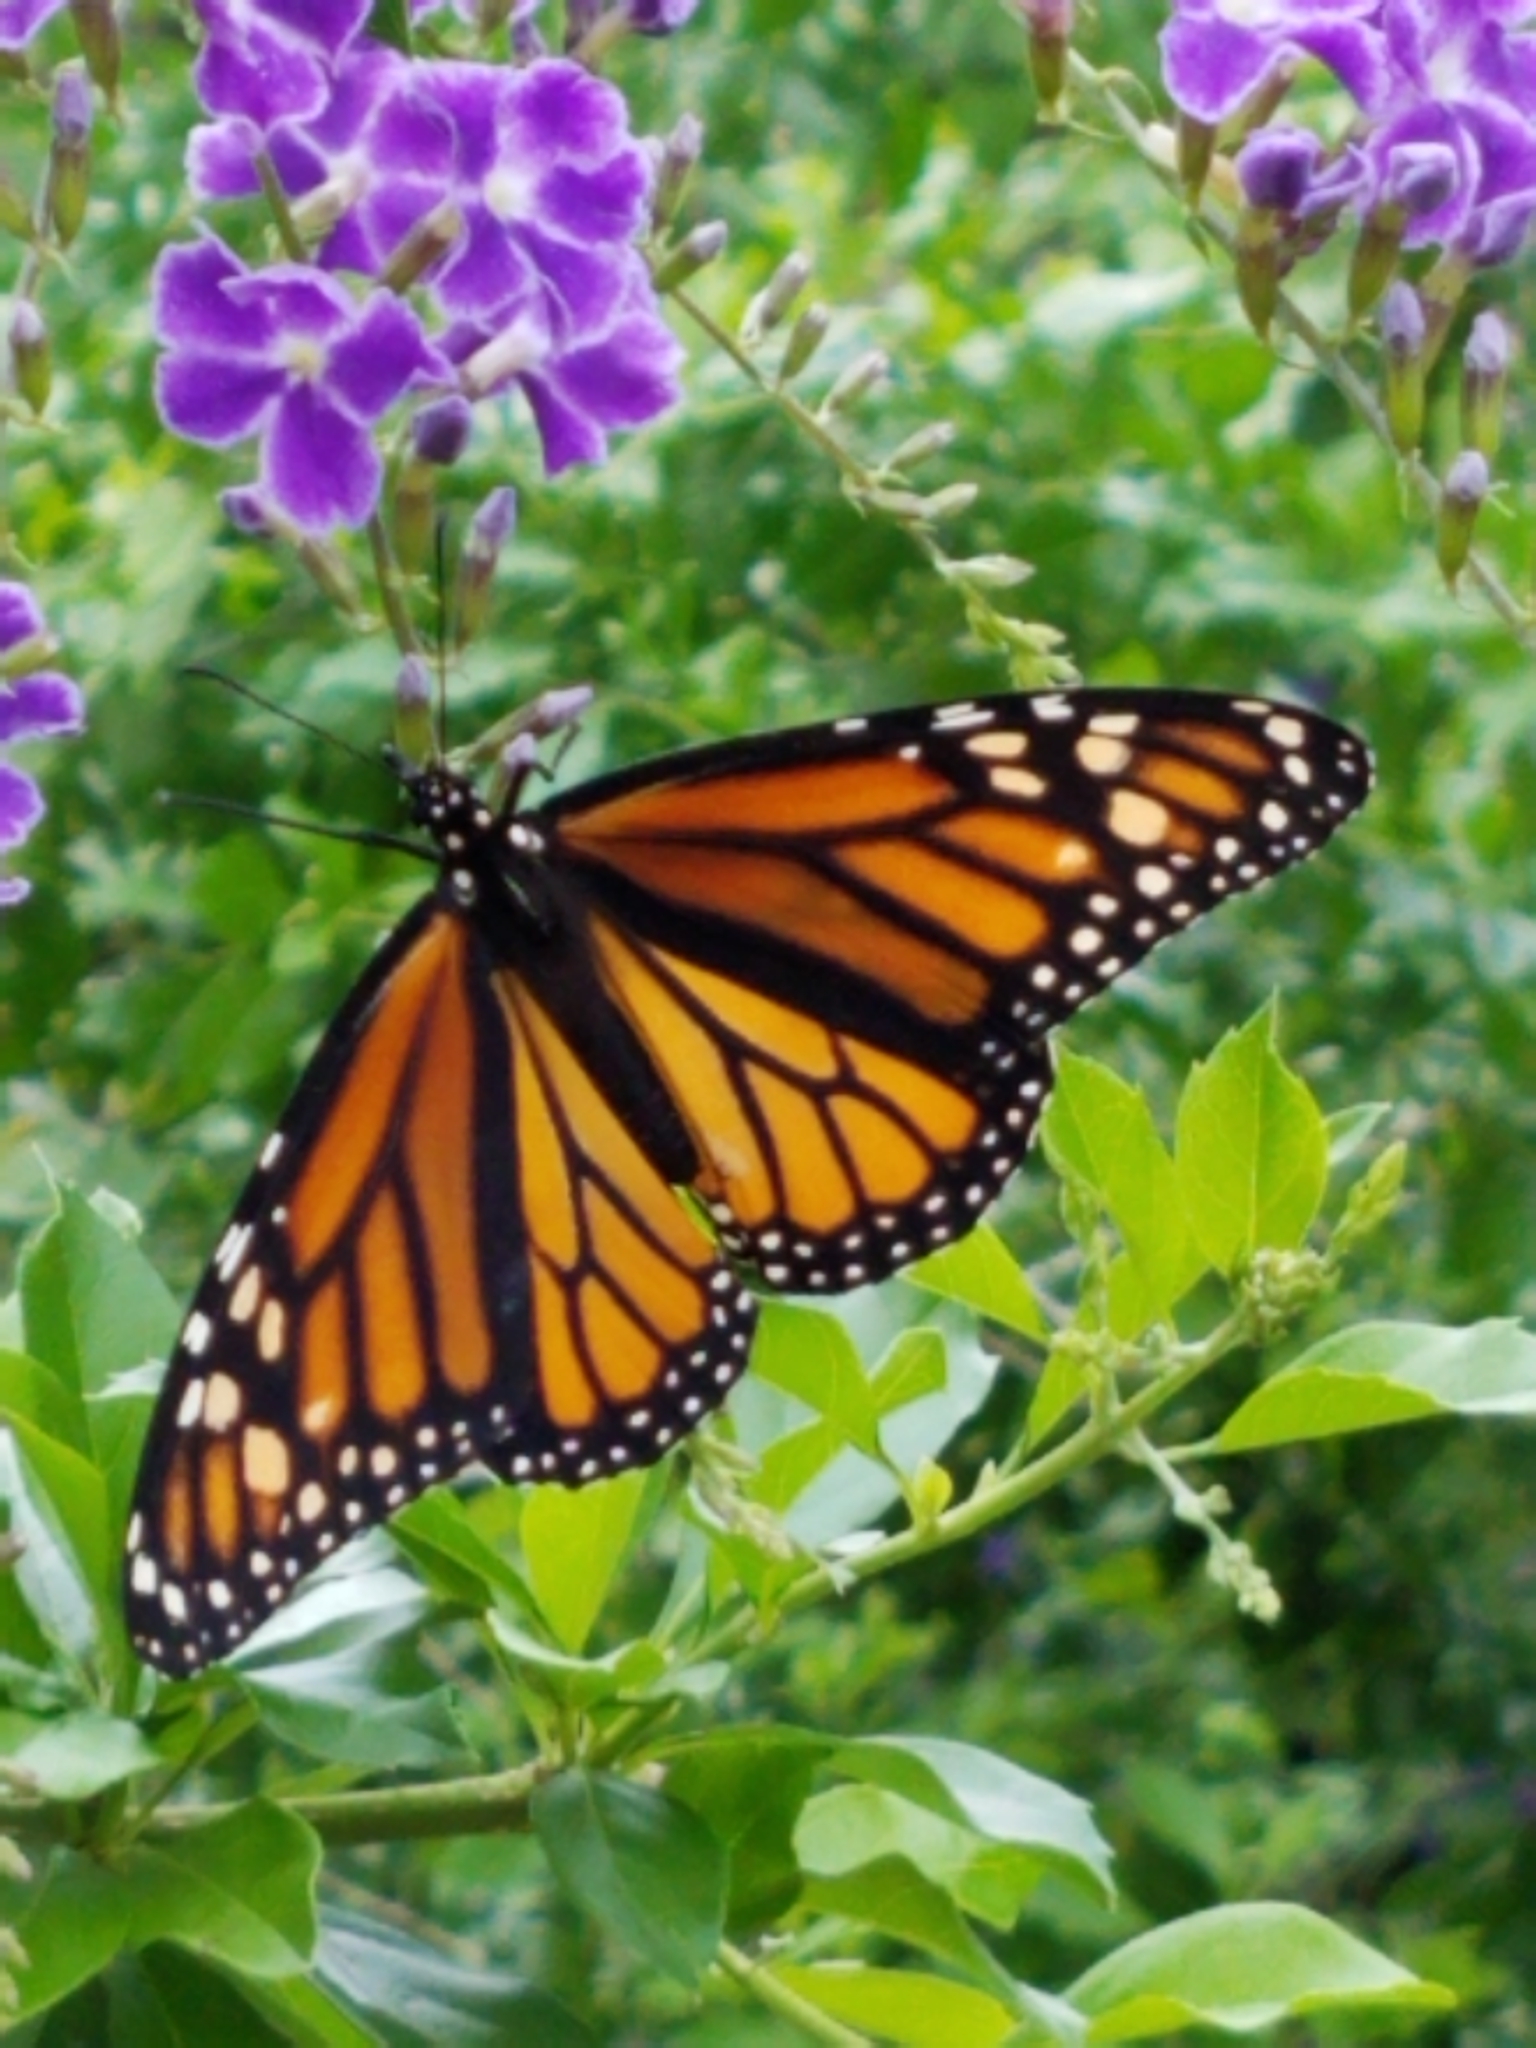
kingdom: Animalia
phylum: Arthropoda
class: Insecta
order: Lepidoptera
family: Nymphalidae
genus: Danaus
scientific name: Danaus plexippus
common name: Monarch
